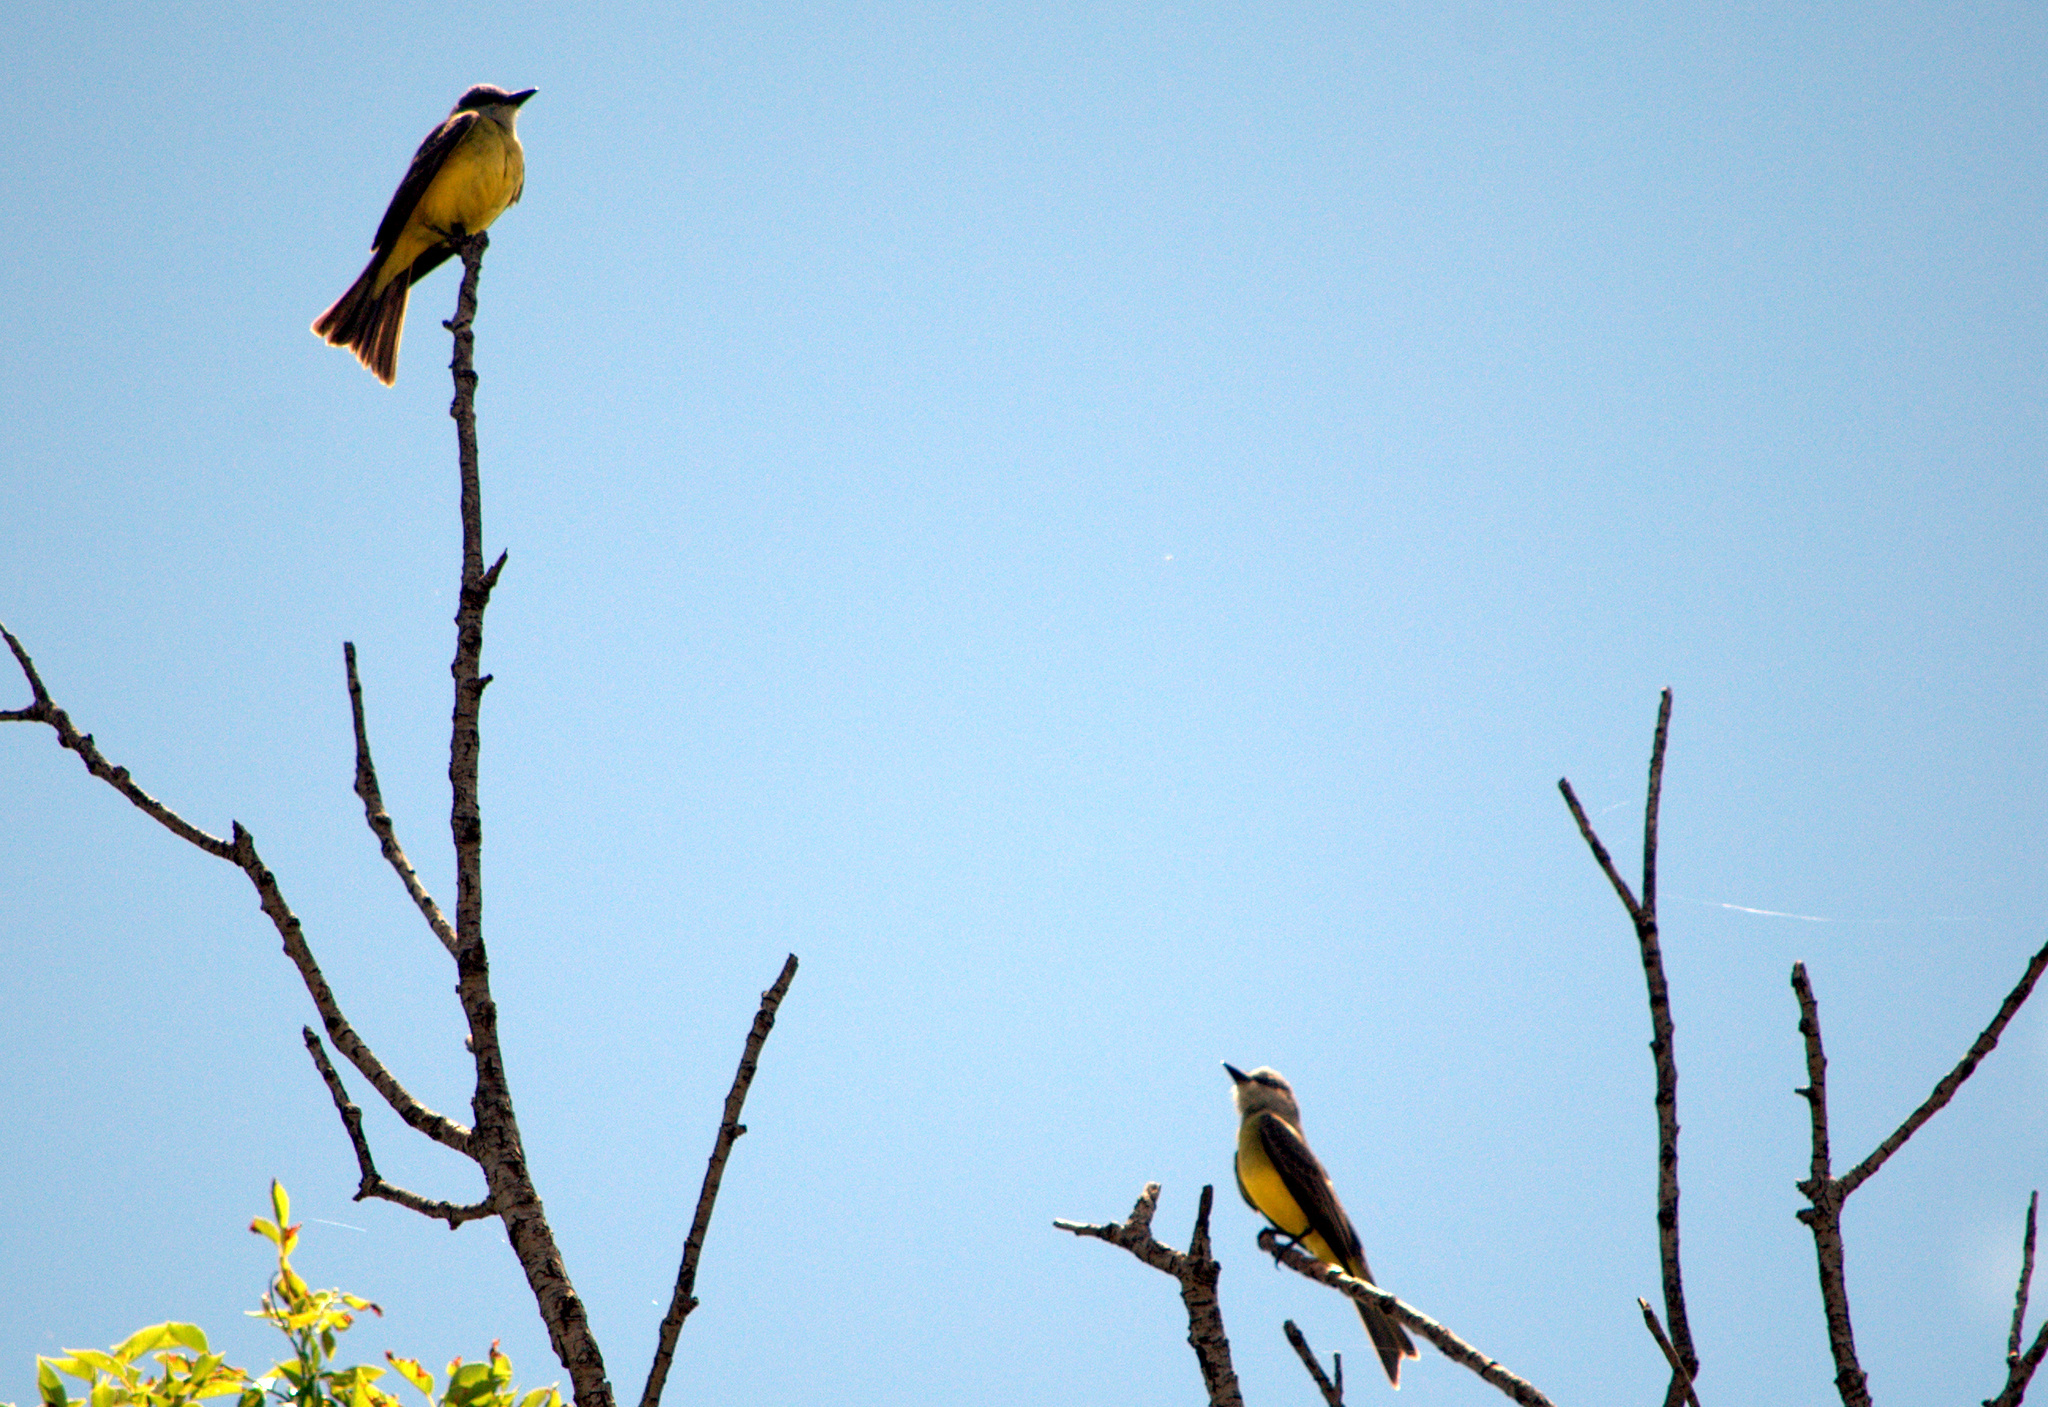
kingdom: Animalia
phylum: Chordata
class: Aves
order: Passeriformes
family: Tyrannidae
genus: Tyrannus
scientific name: Tyrannus melancholicus
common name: Tropical kingbird
